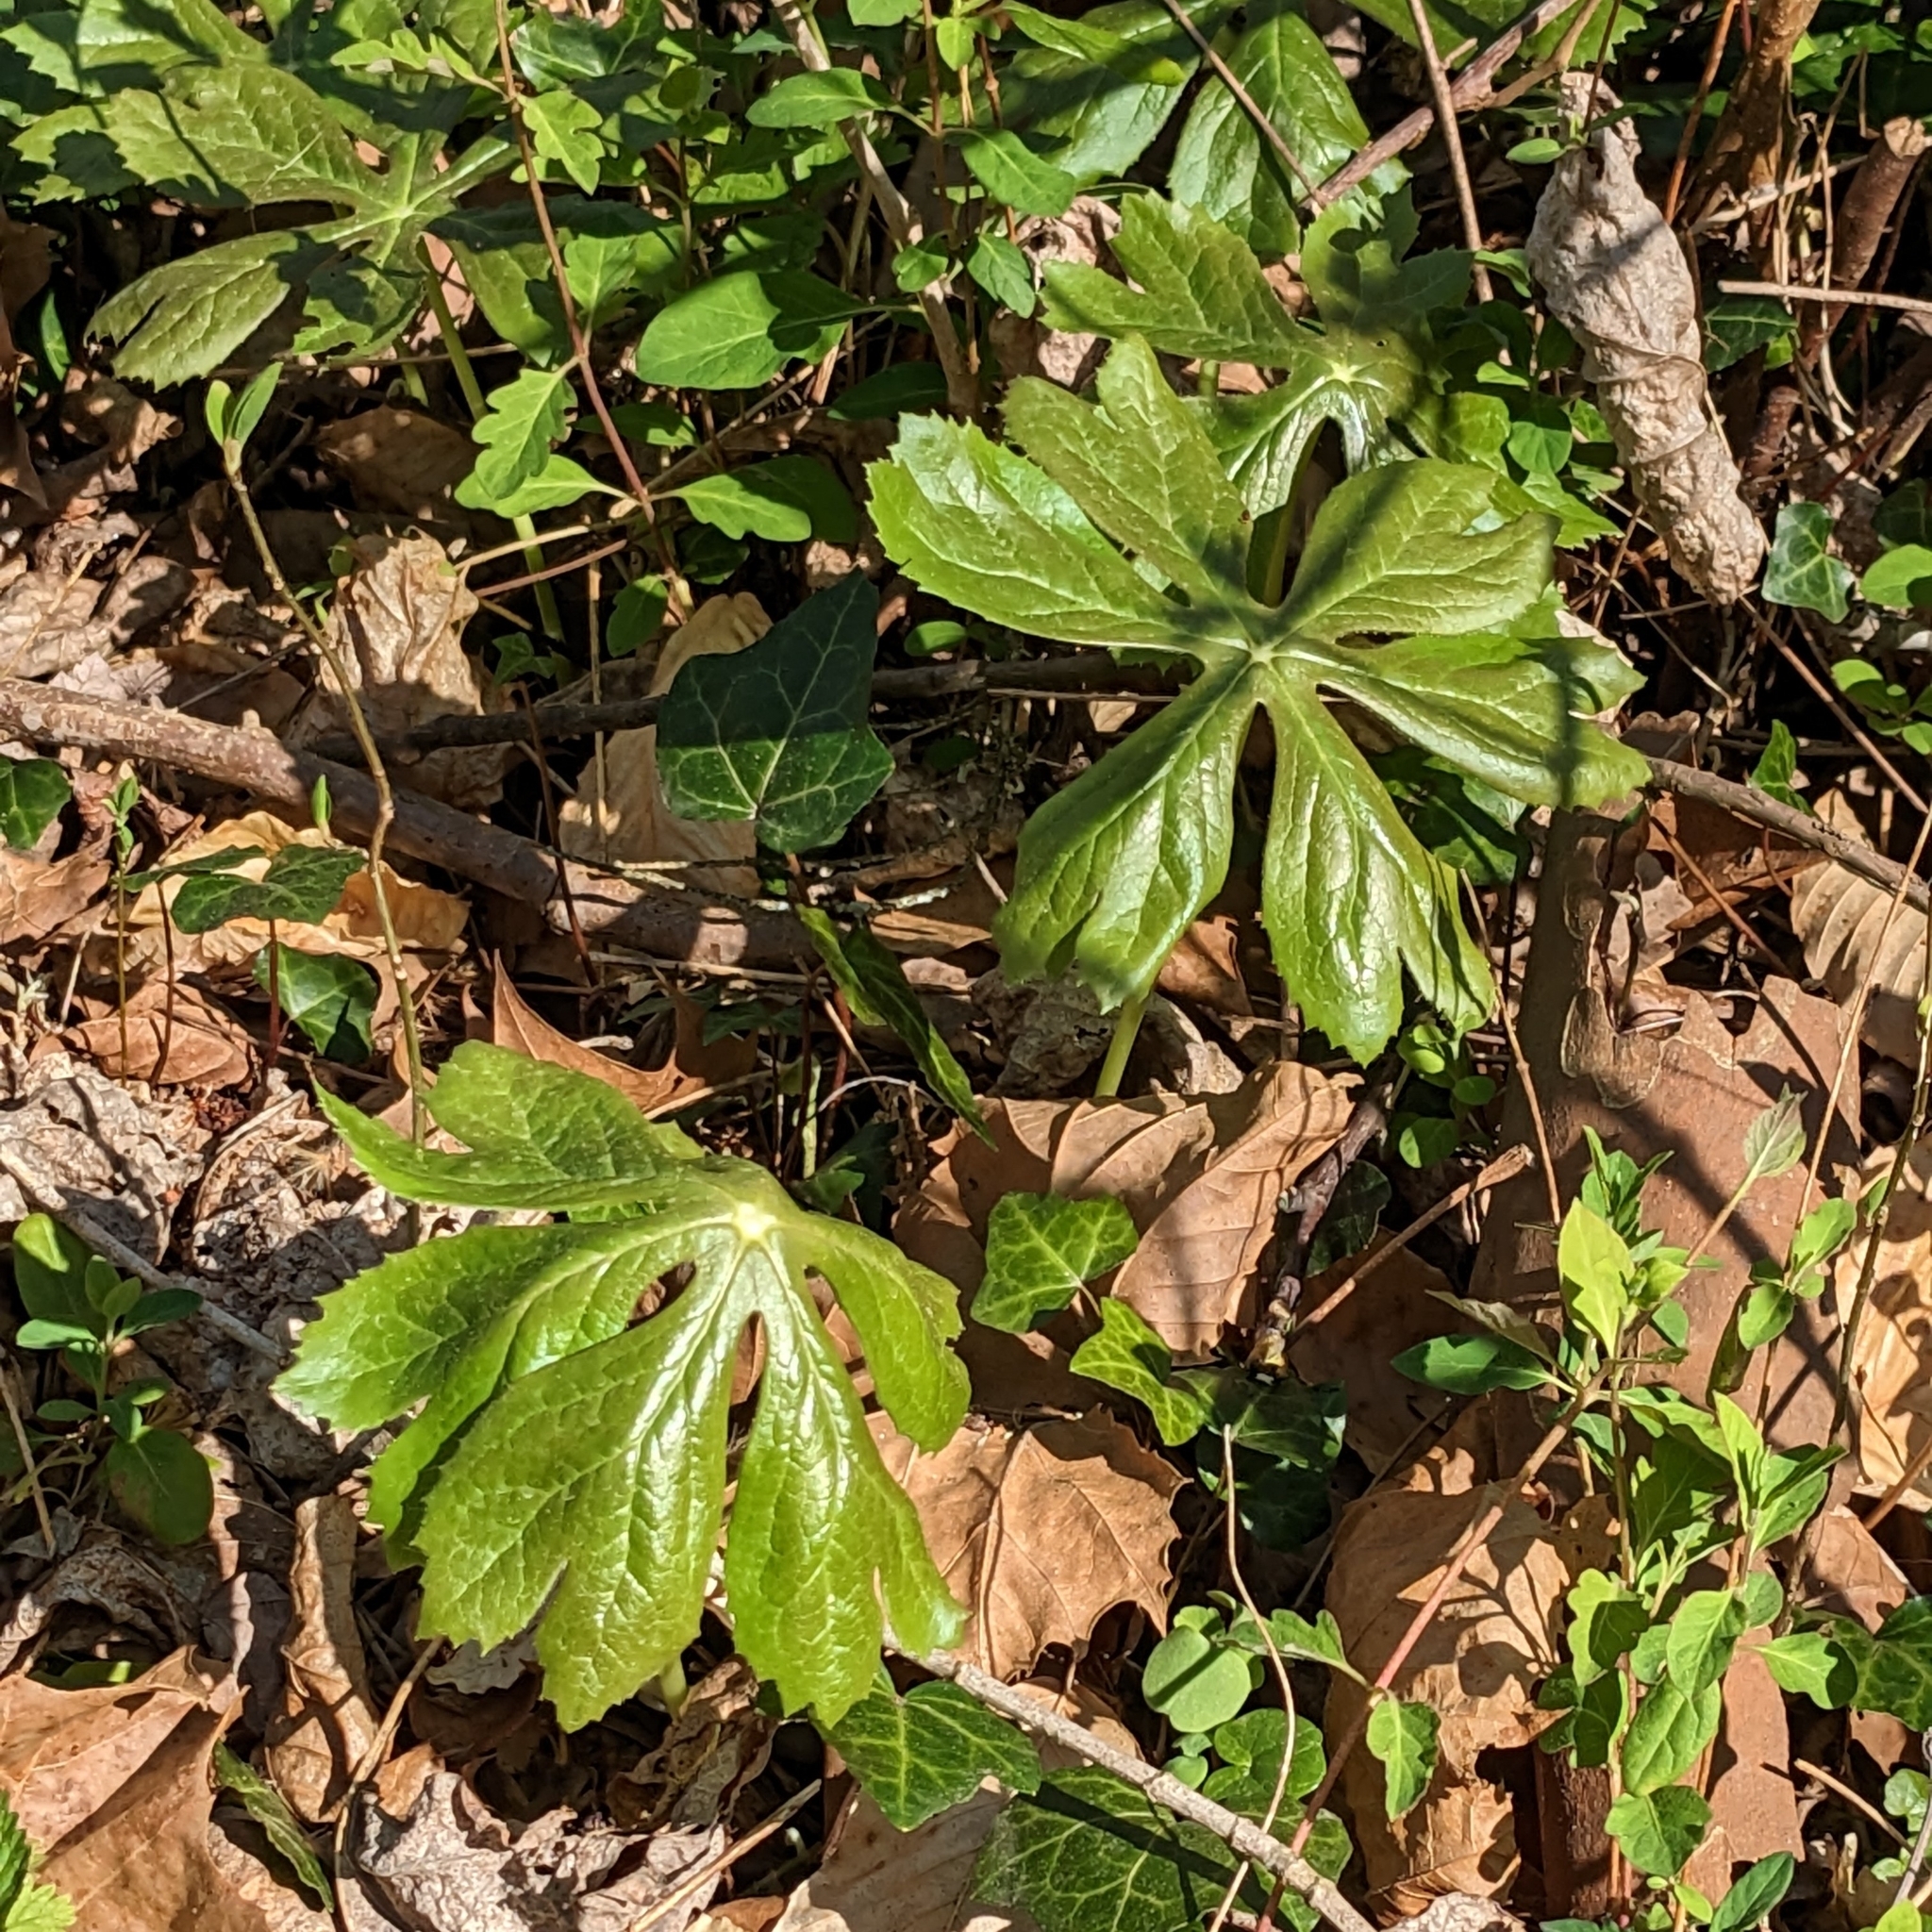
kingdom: Plantae
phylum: Tracheophyta
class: Magnoliopsida
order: Ranunculales
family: Berberidaceae
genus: Podophyllum
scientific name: Podophyllum peltatum
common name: Wild mandrake
